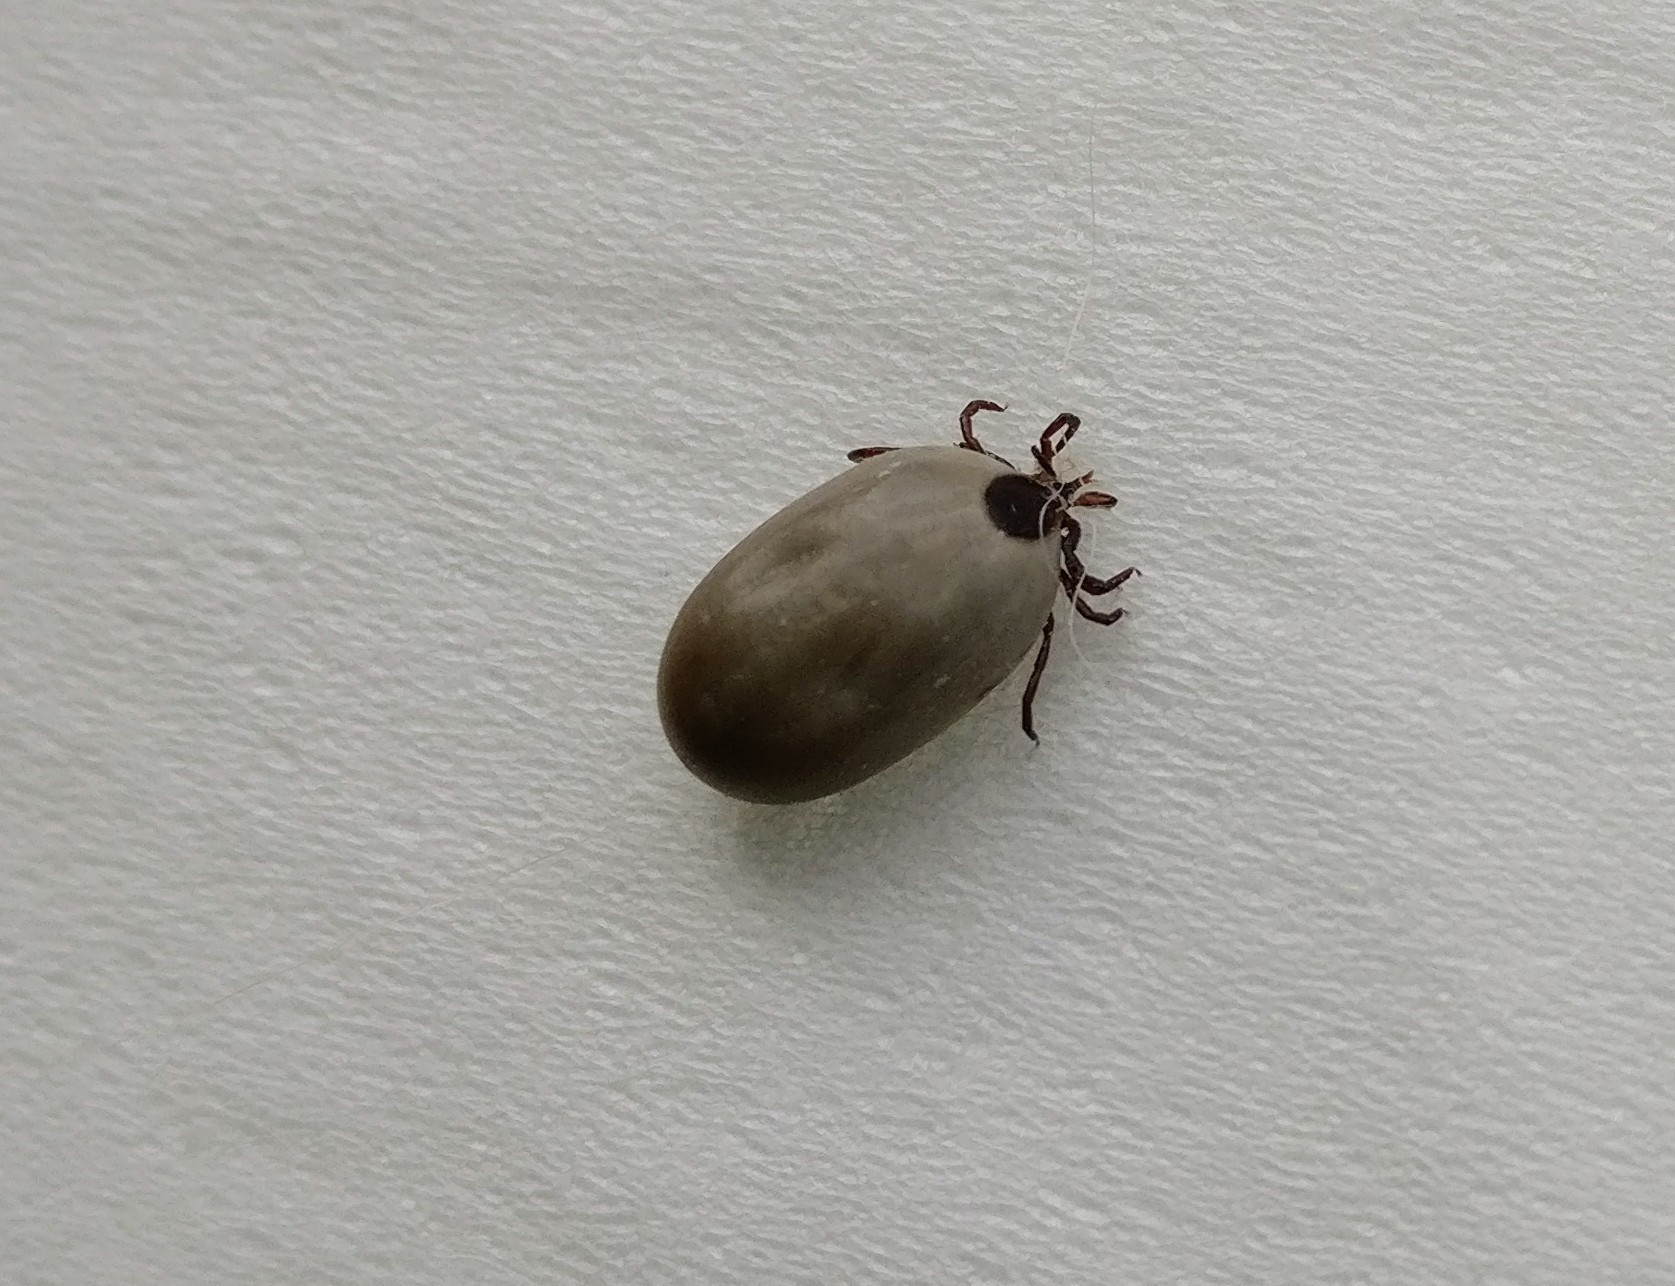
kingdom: Animalia
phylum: Arthropoda
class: Arachnida
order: Ixodida
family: Ixodidae
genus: Ixodes
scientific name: Ixodes scapularis
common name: Black legged tick
